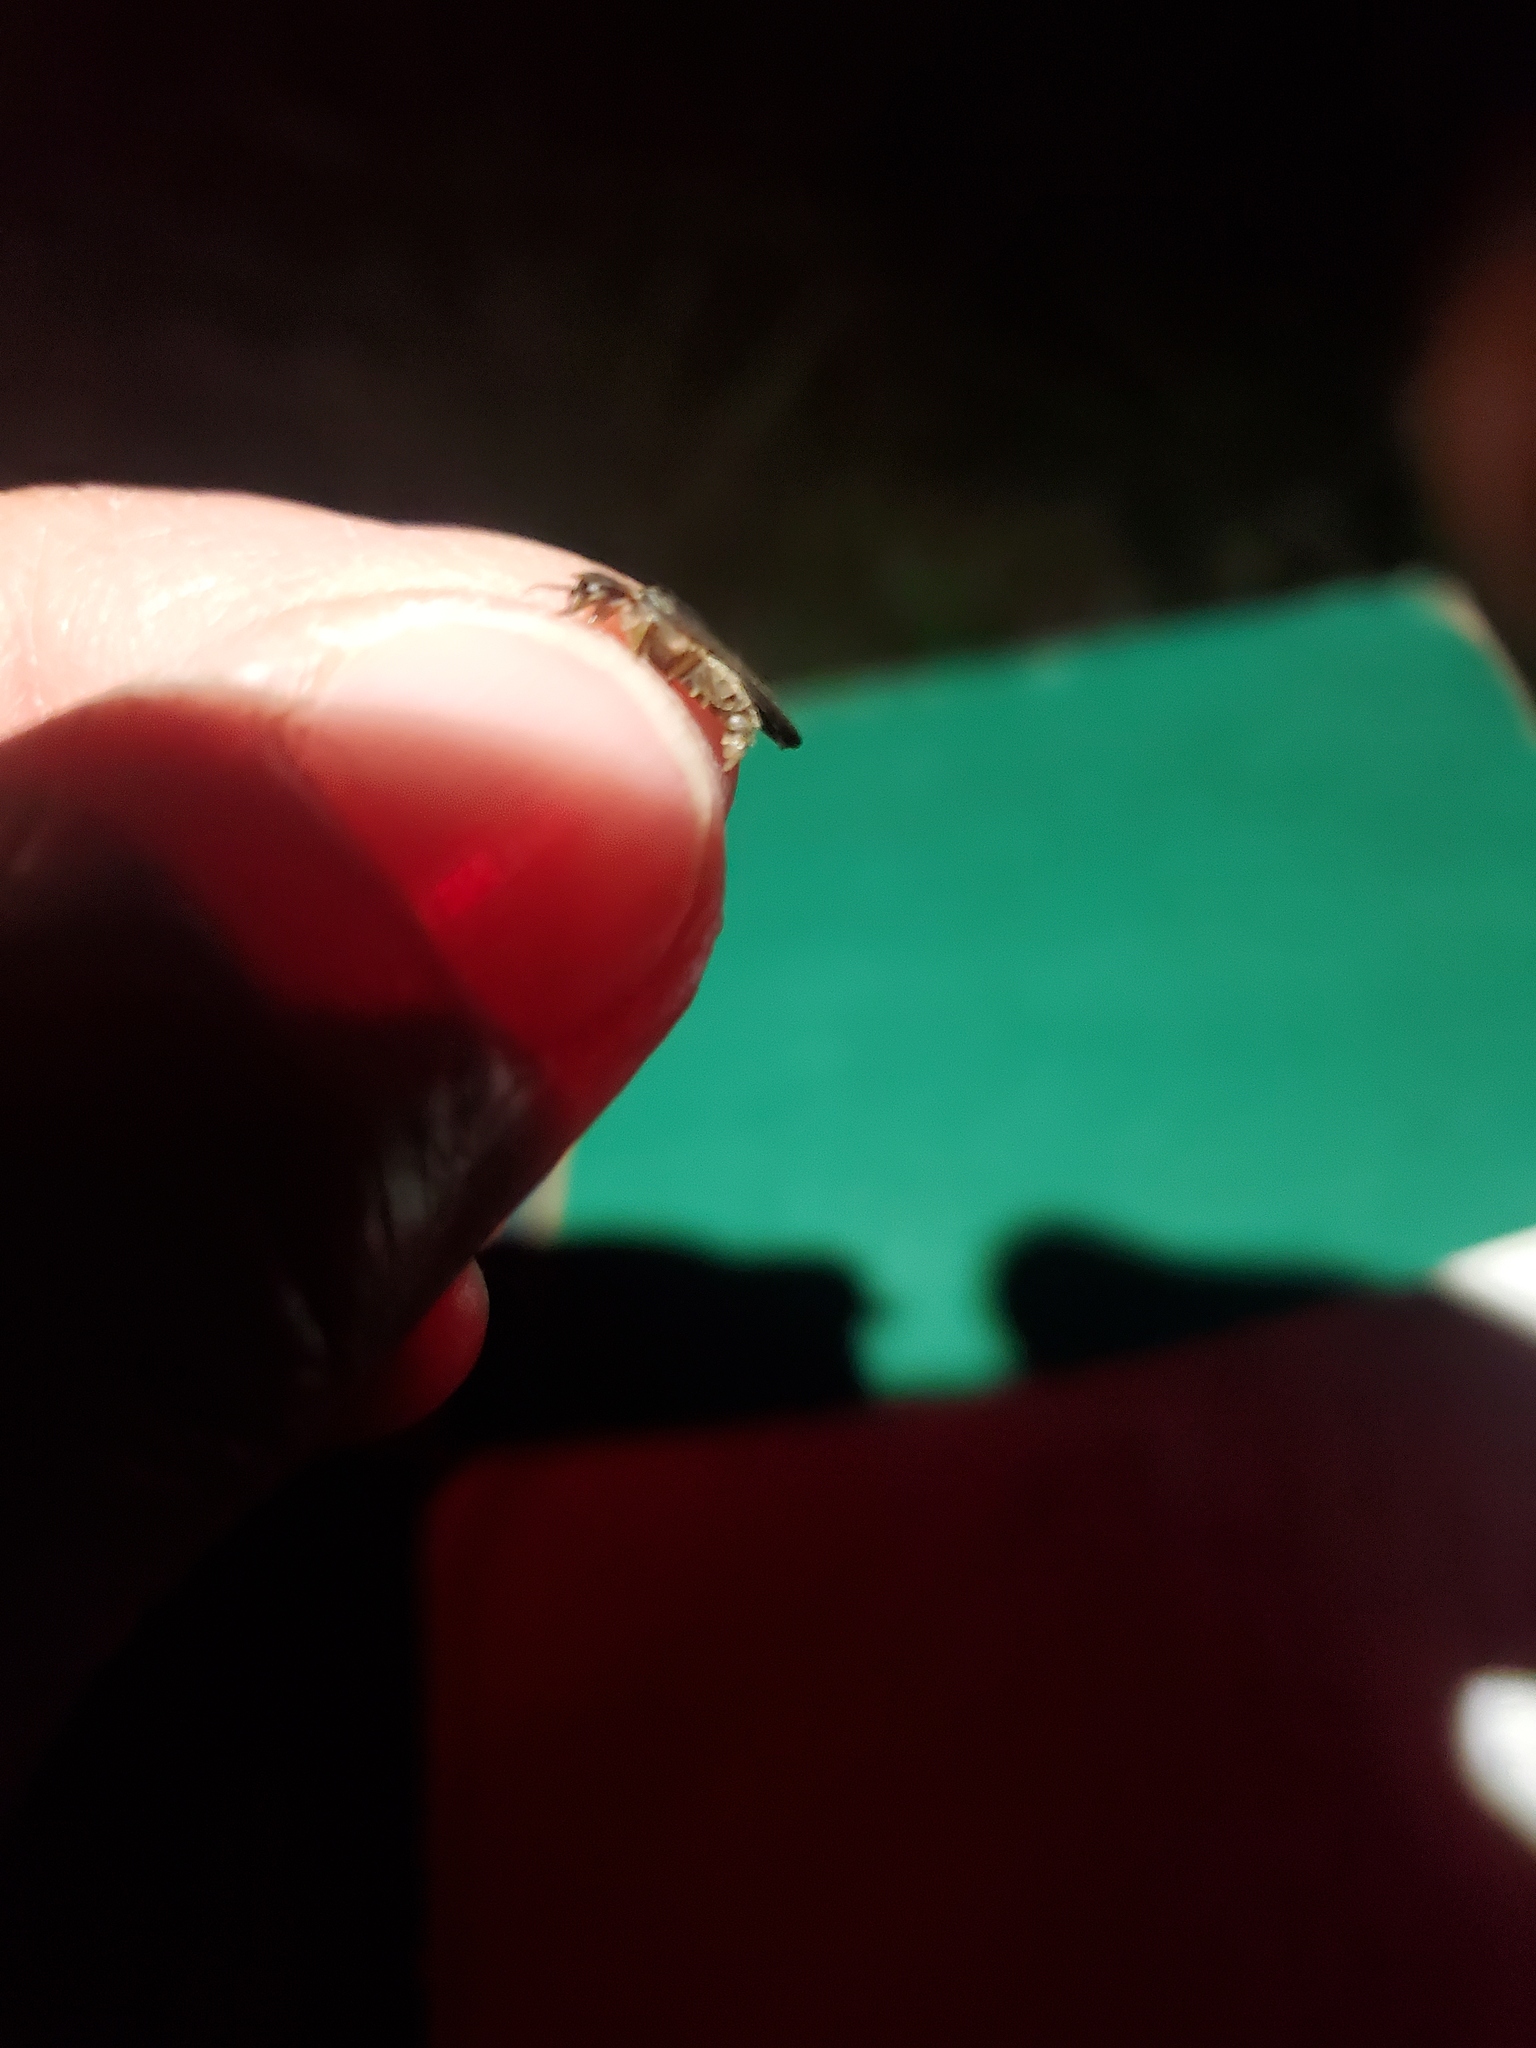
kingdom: Animalia
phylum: Arthropoda
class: Insecta
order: Coleoptera
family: Lampyridae
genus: Lampyris
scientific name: Lampyris noctiluca
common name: Glow-worm
